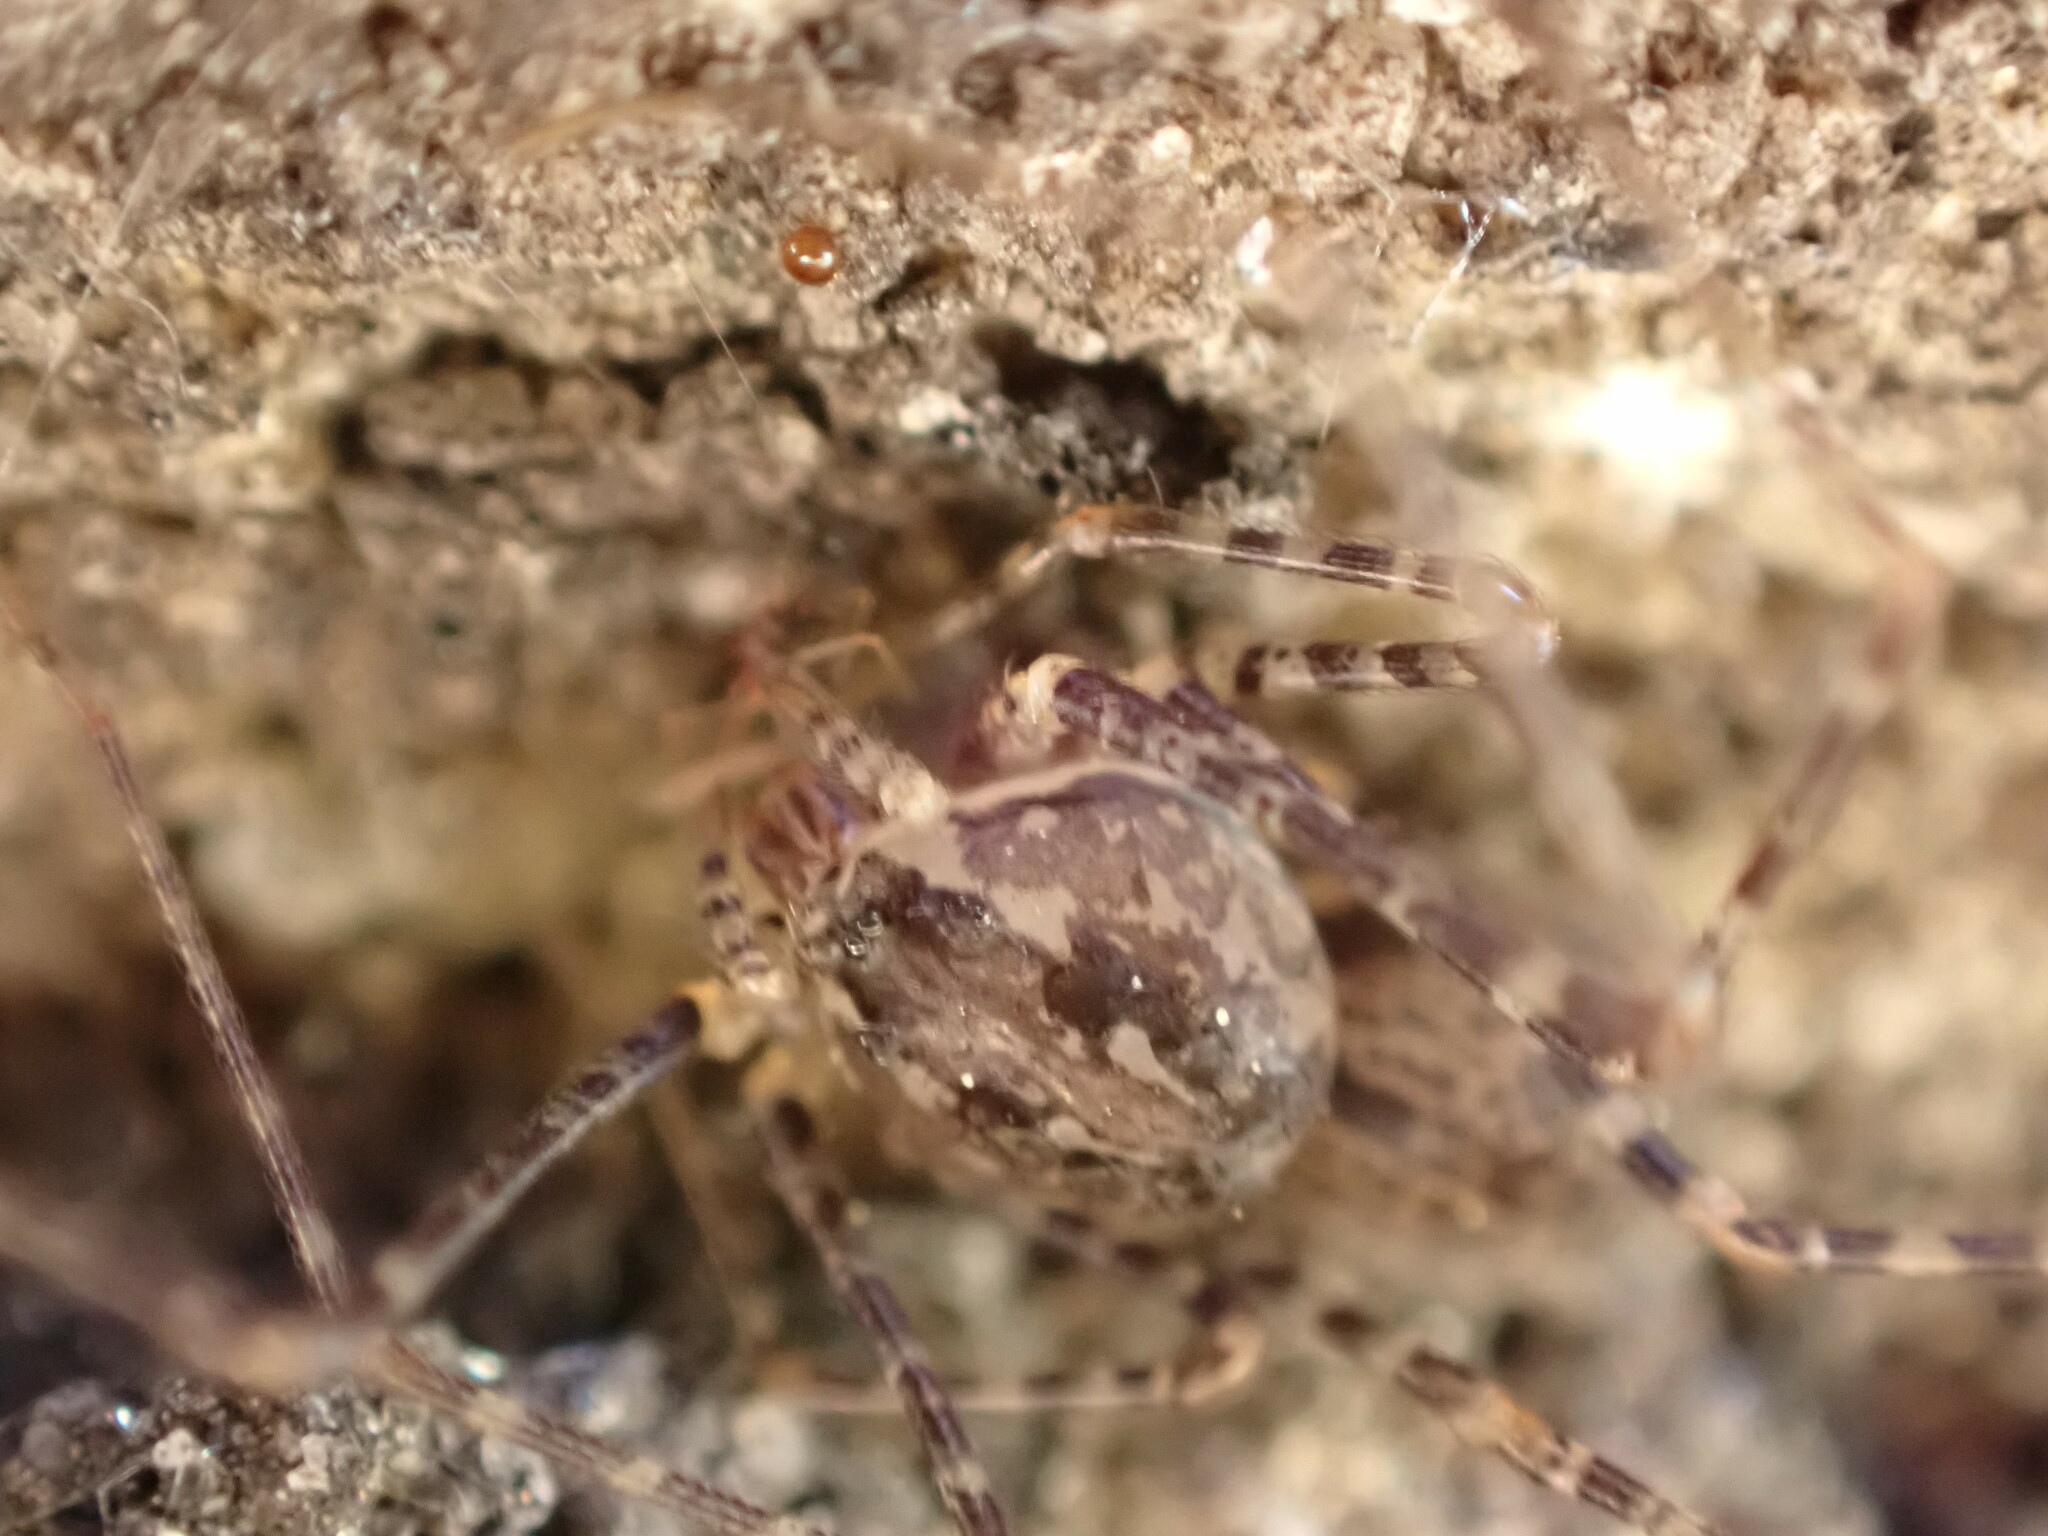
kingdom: Animalia
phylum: Arthropoda
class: Arachnida
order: Araneae
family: Scytodidae
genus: Scytodes
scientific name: Scytodes globula
